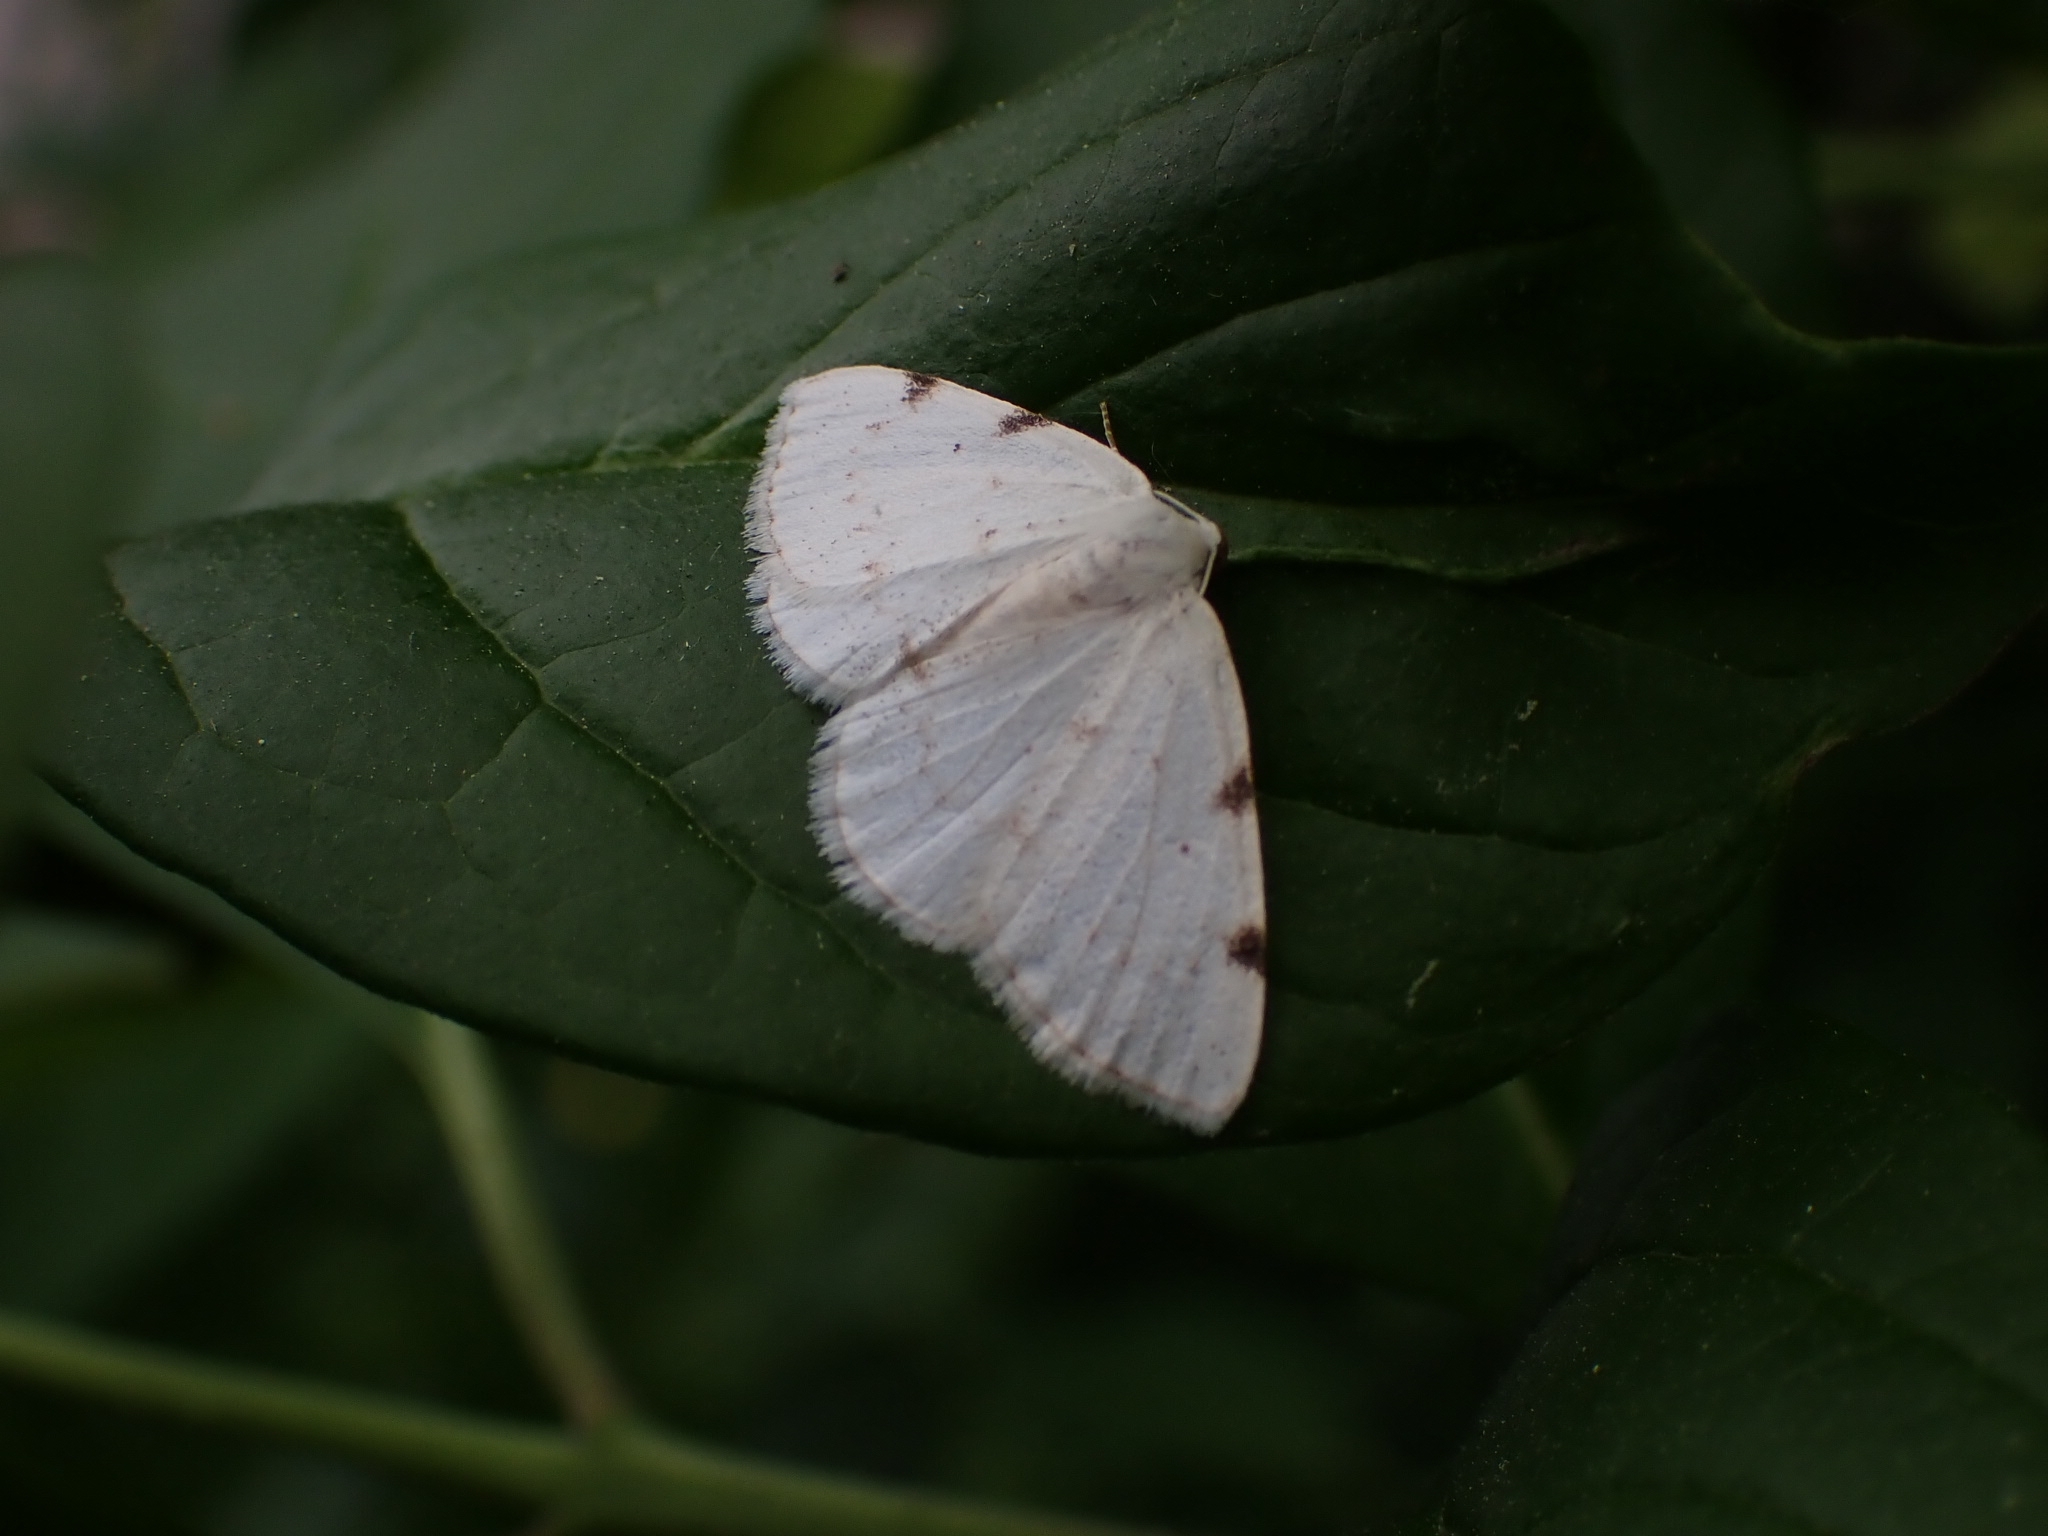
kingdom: Animalia
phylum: Arthropoda
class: Insecta
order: Lepidoptera
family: Geometridae
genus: Lomographa
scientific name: Lomographa bimaculata
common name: White-pinion spotted
